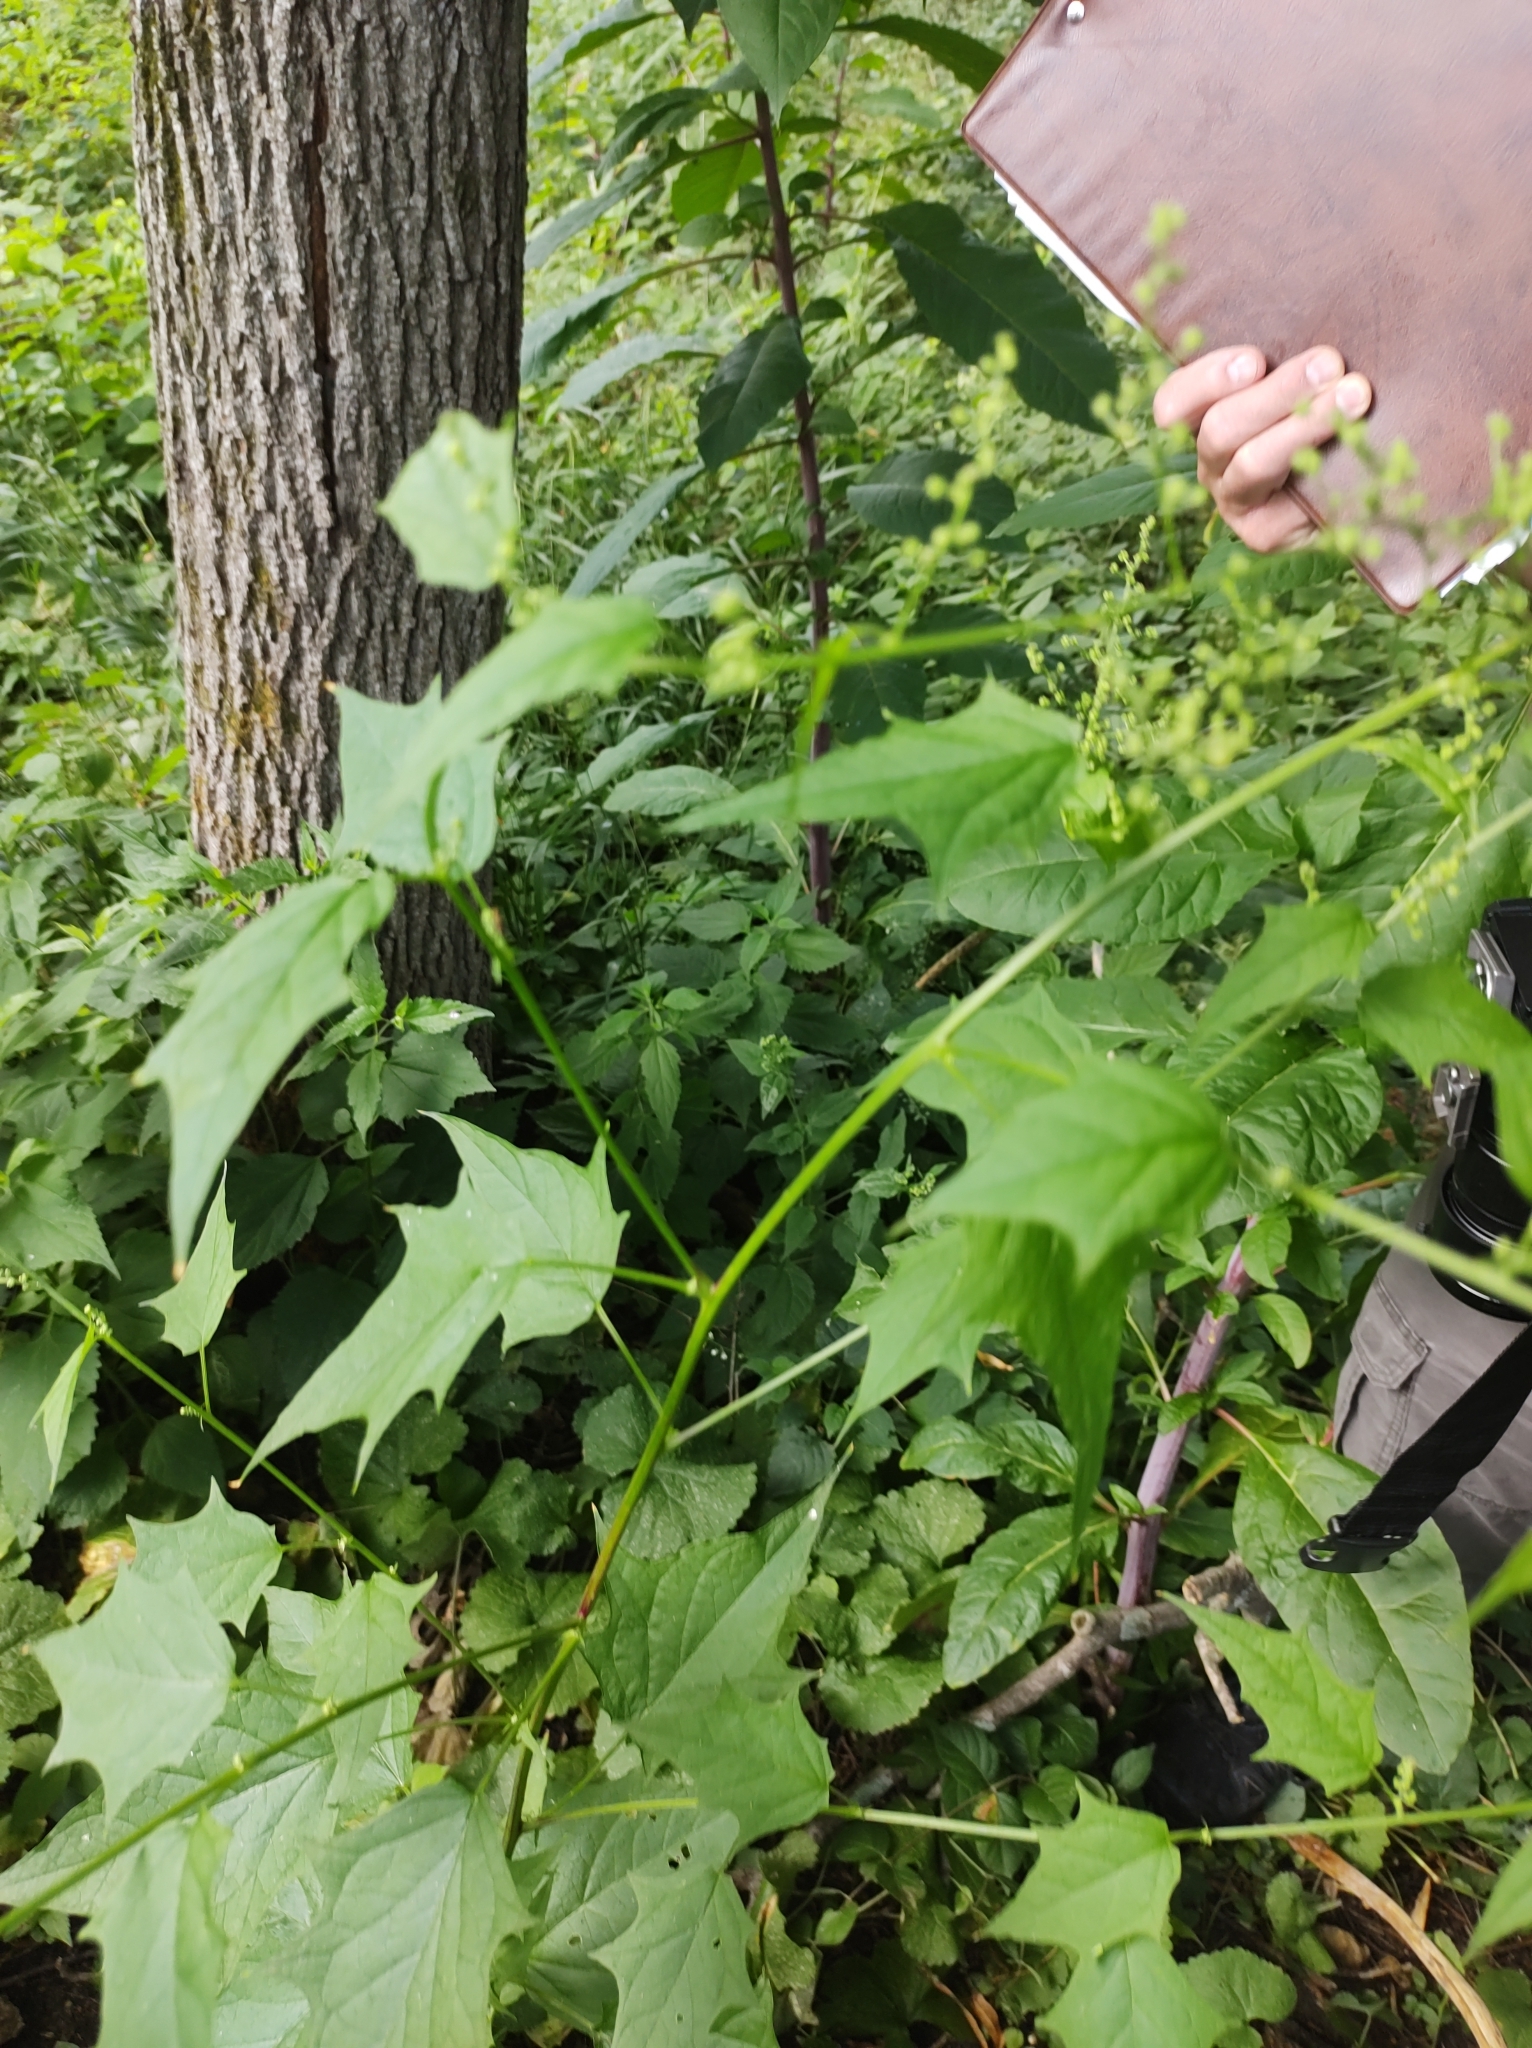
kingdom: Plantae
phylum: Tracheophyta
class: Magnoliopsida
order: Caryophyllales
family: Amaranthaceae
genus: Chenopodiastrum
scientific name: Chenopodiastrum hybridum
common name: Mapleleaf goosefoot
